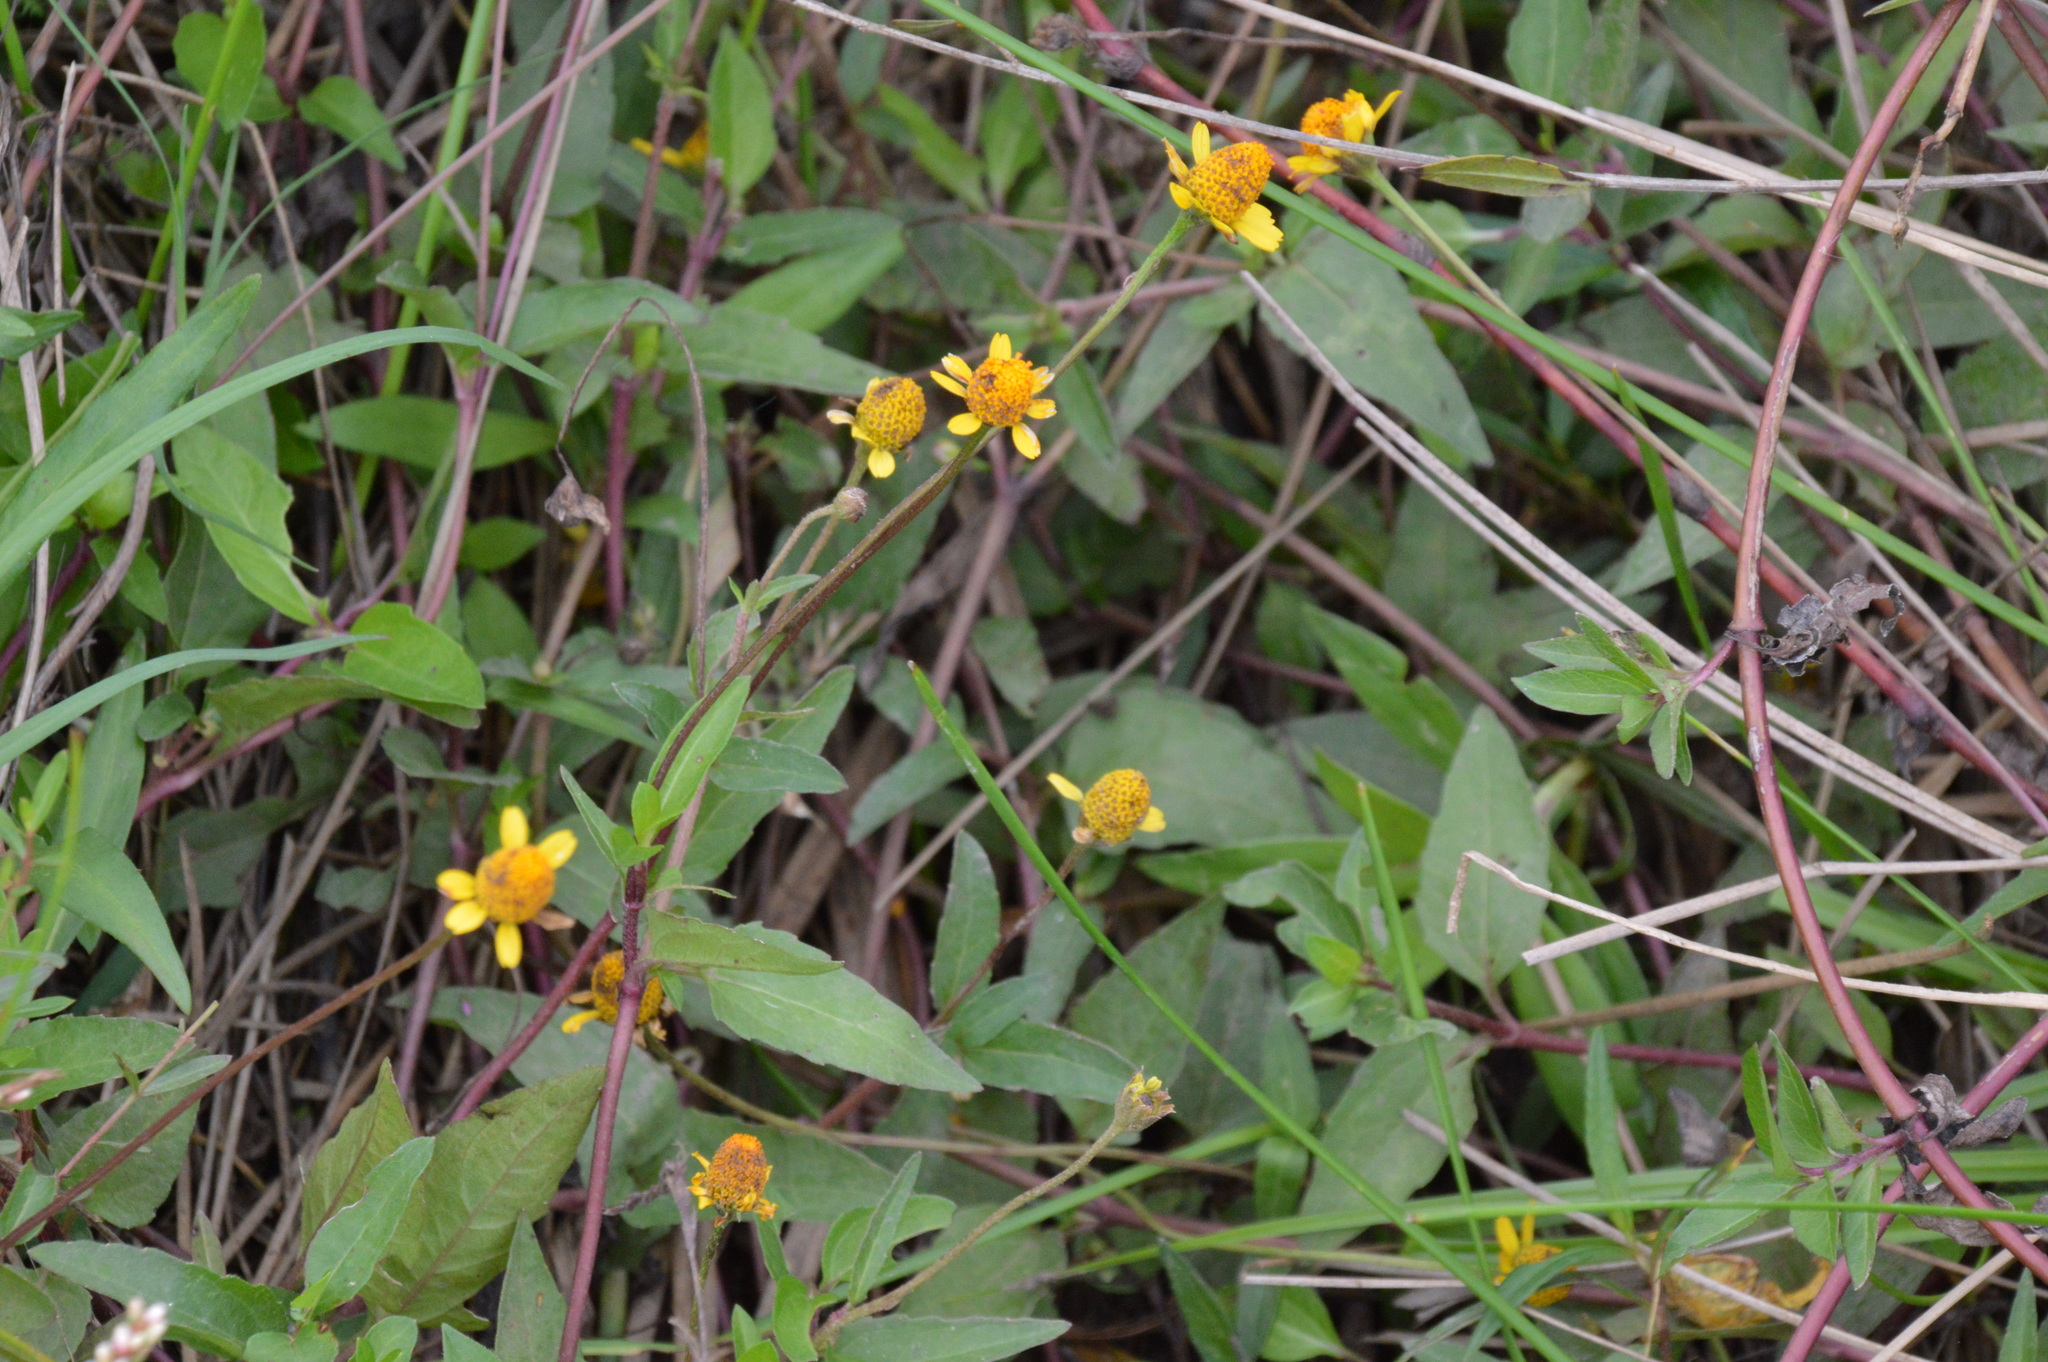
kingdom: Plantae
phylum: Tracheophyta
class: Magnoliopsida
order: Asterales
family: Asteraceae
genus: Acmella
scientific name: Acmella repens
